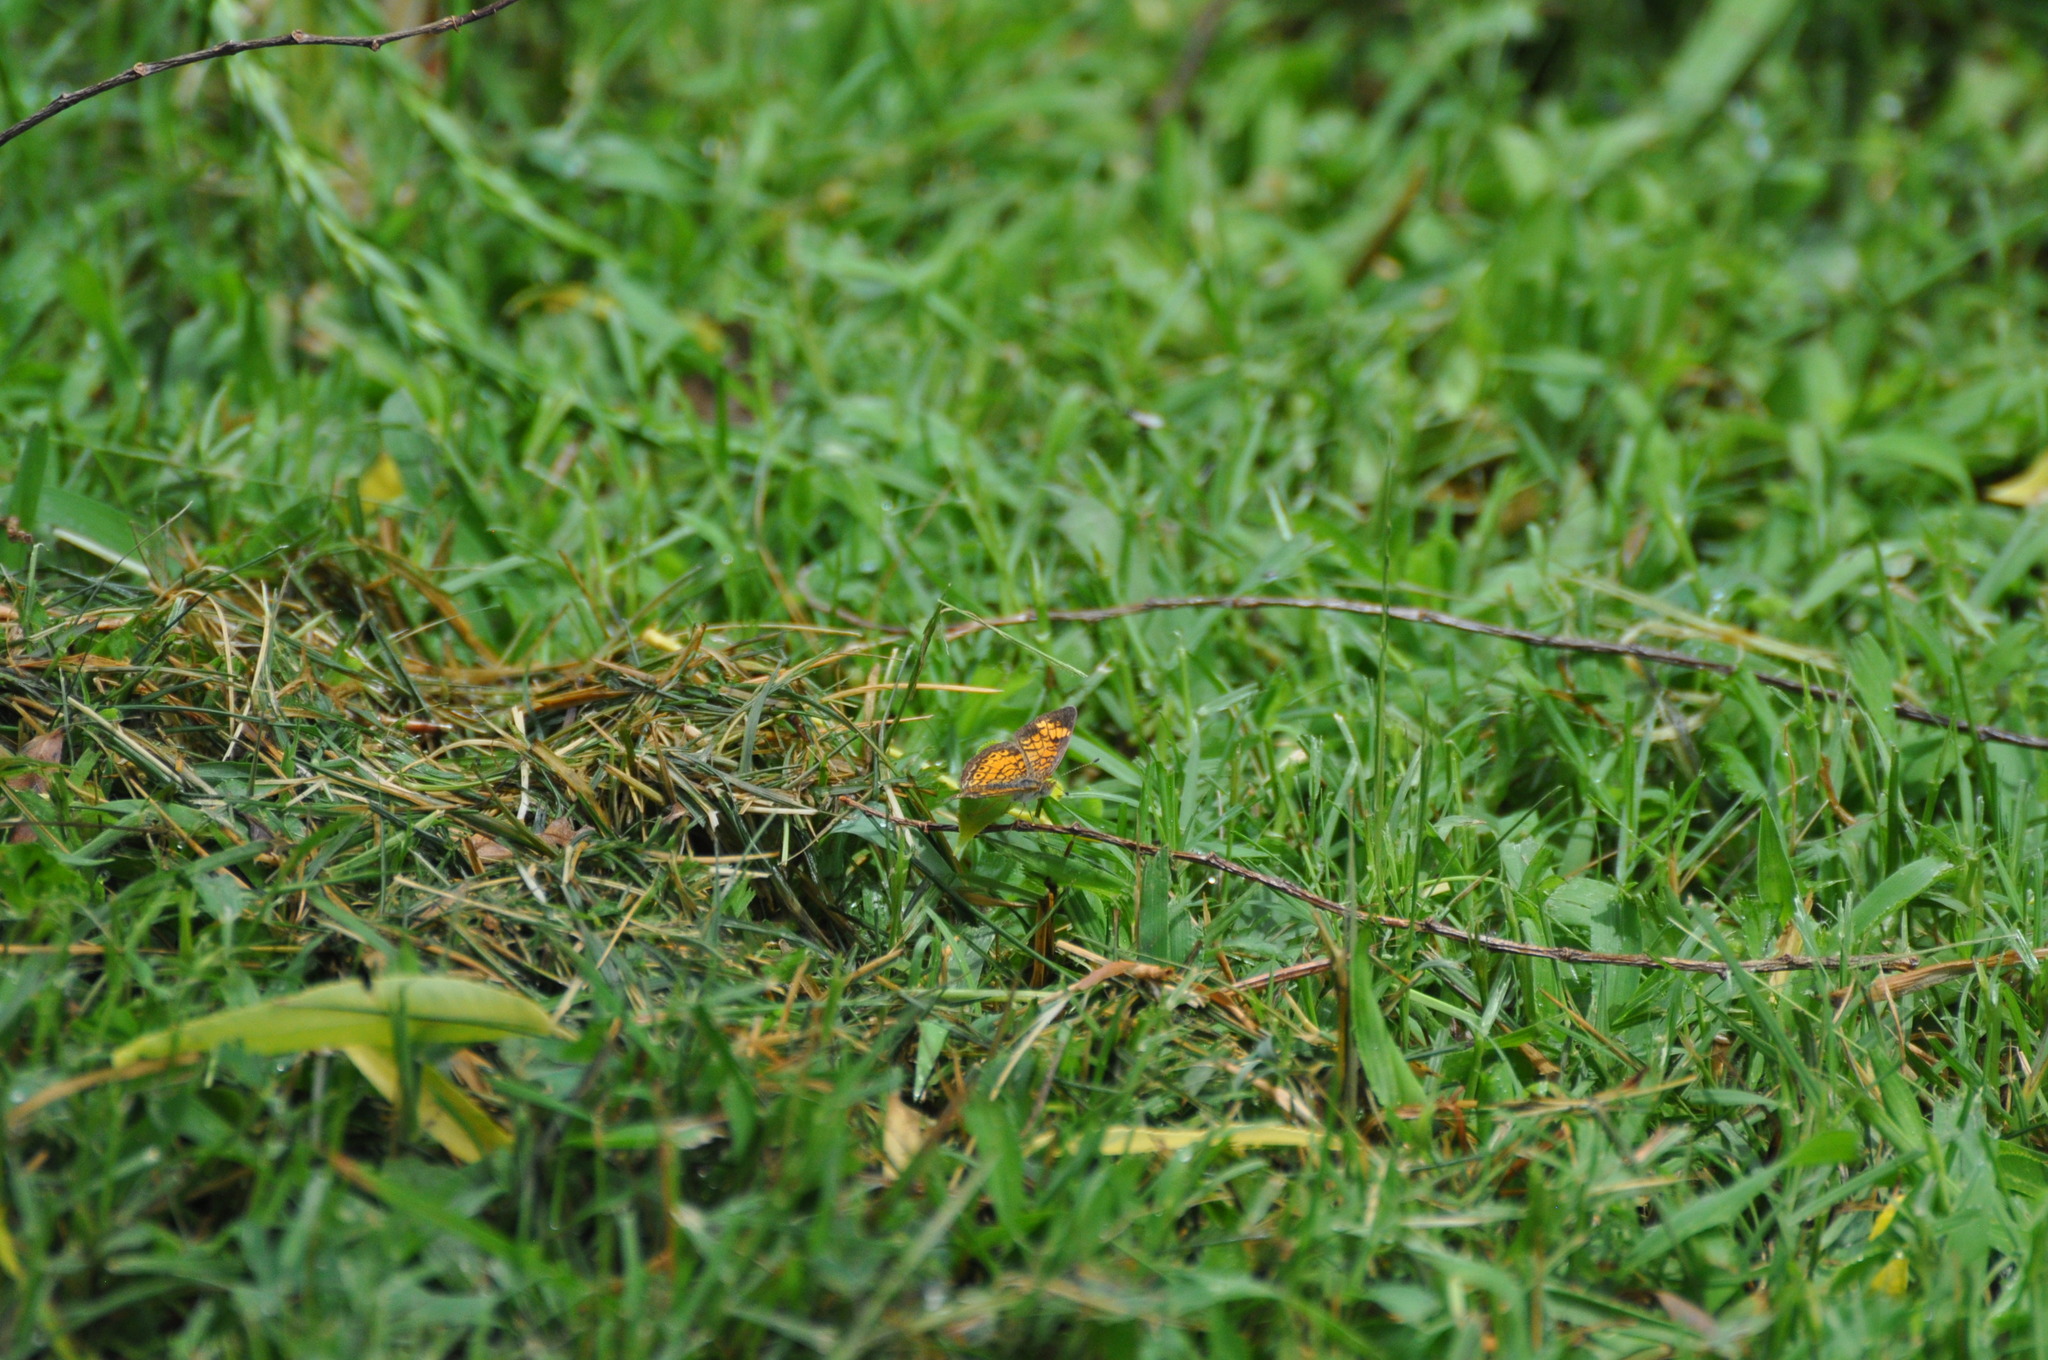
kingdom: Animalia
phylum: Arthropoda
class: Insecta
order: Lepidoptera
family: Nymphalidae
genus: Phyciodes
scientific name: Phyciodes tharos
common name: Pearl crescent
